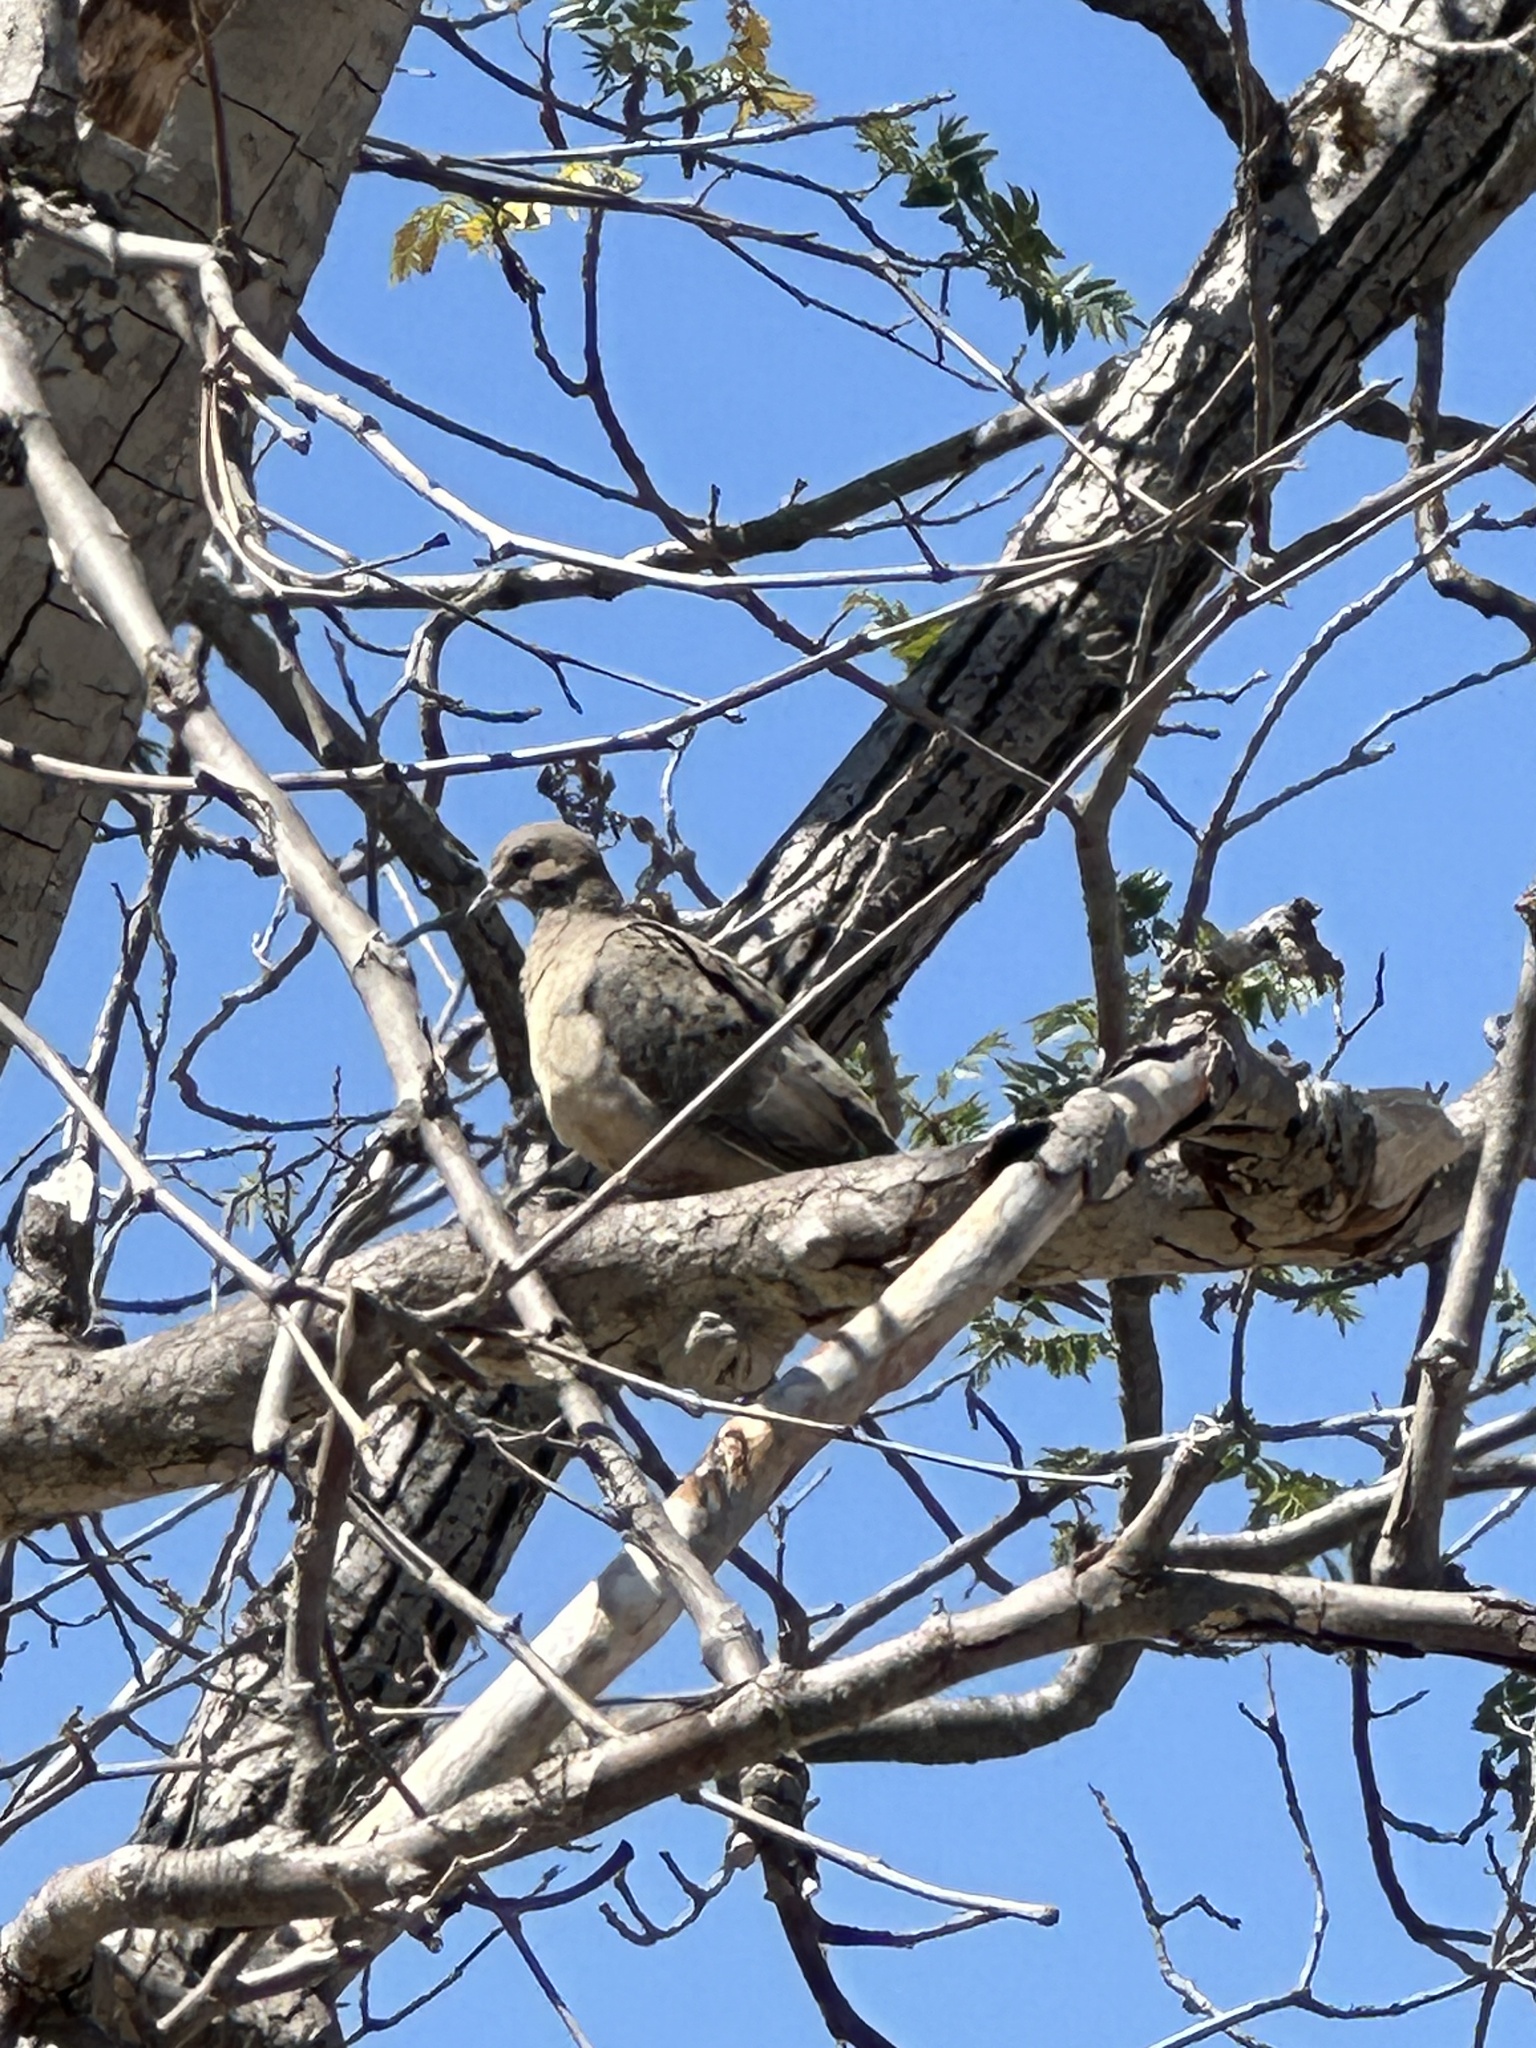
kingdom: Animalia
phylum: Chordata
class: Aves
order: Columbiformes
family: Columbidae
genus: Zenaida
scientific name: Zenaida macroura
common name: Mourning dove
